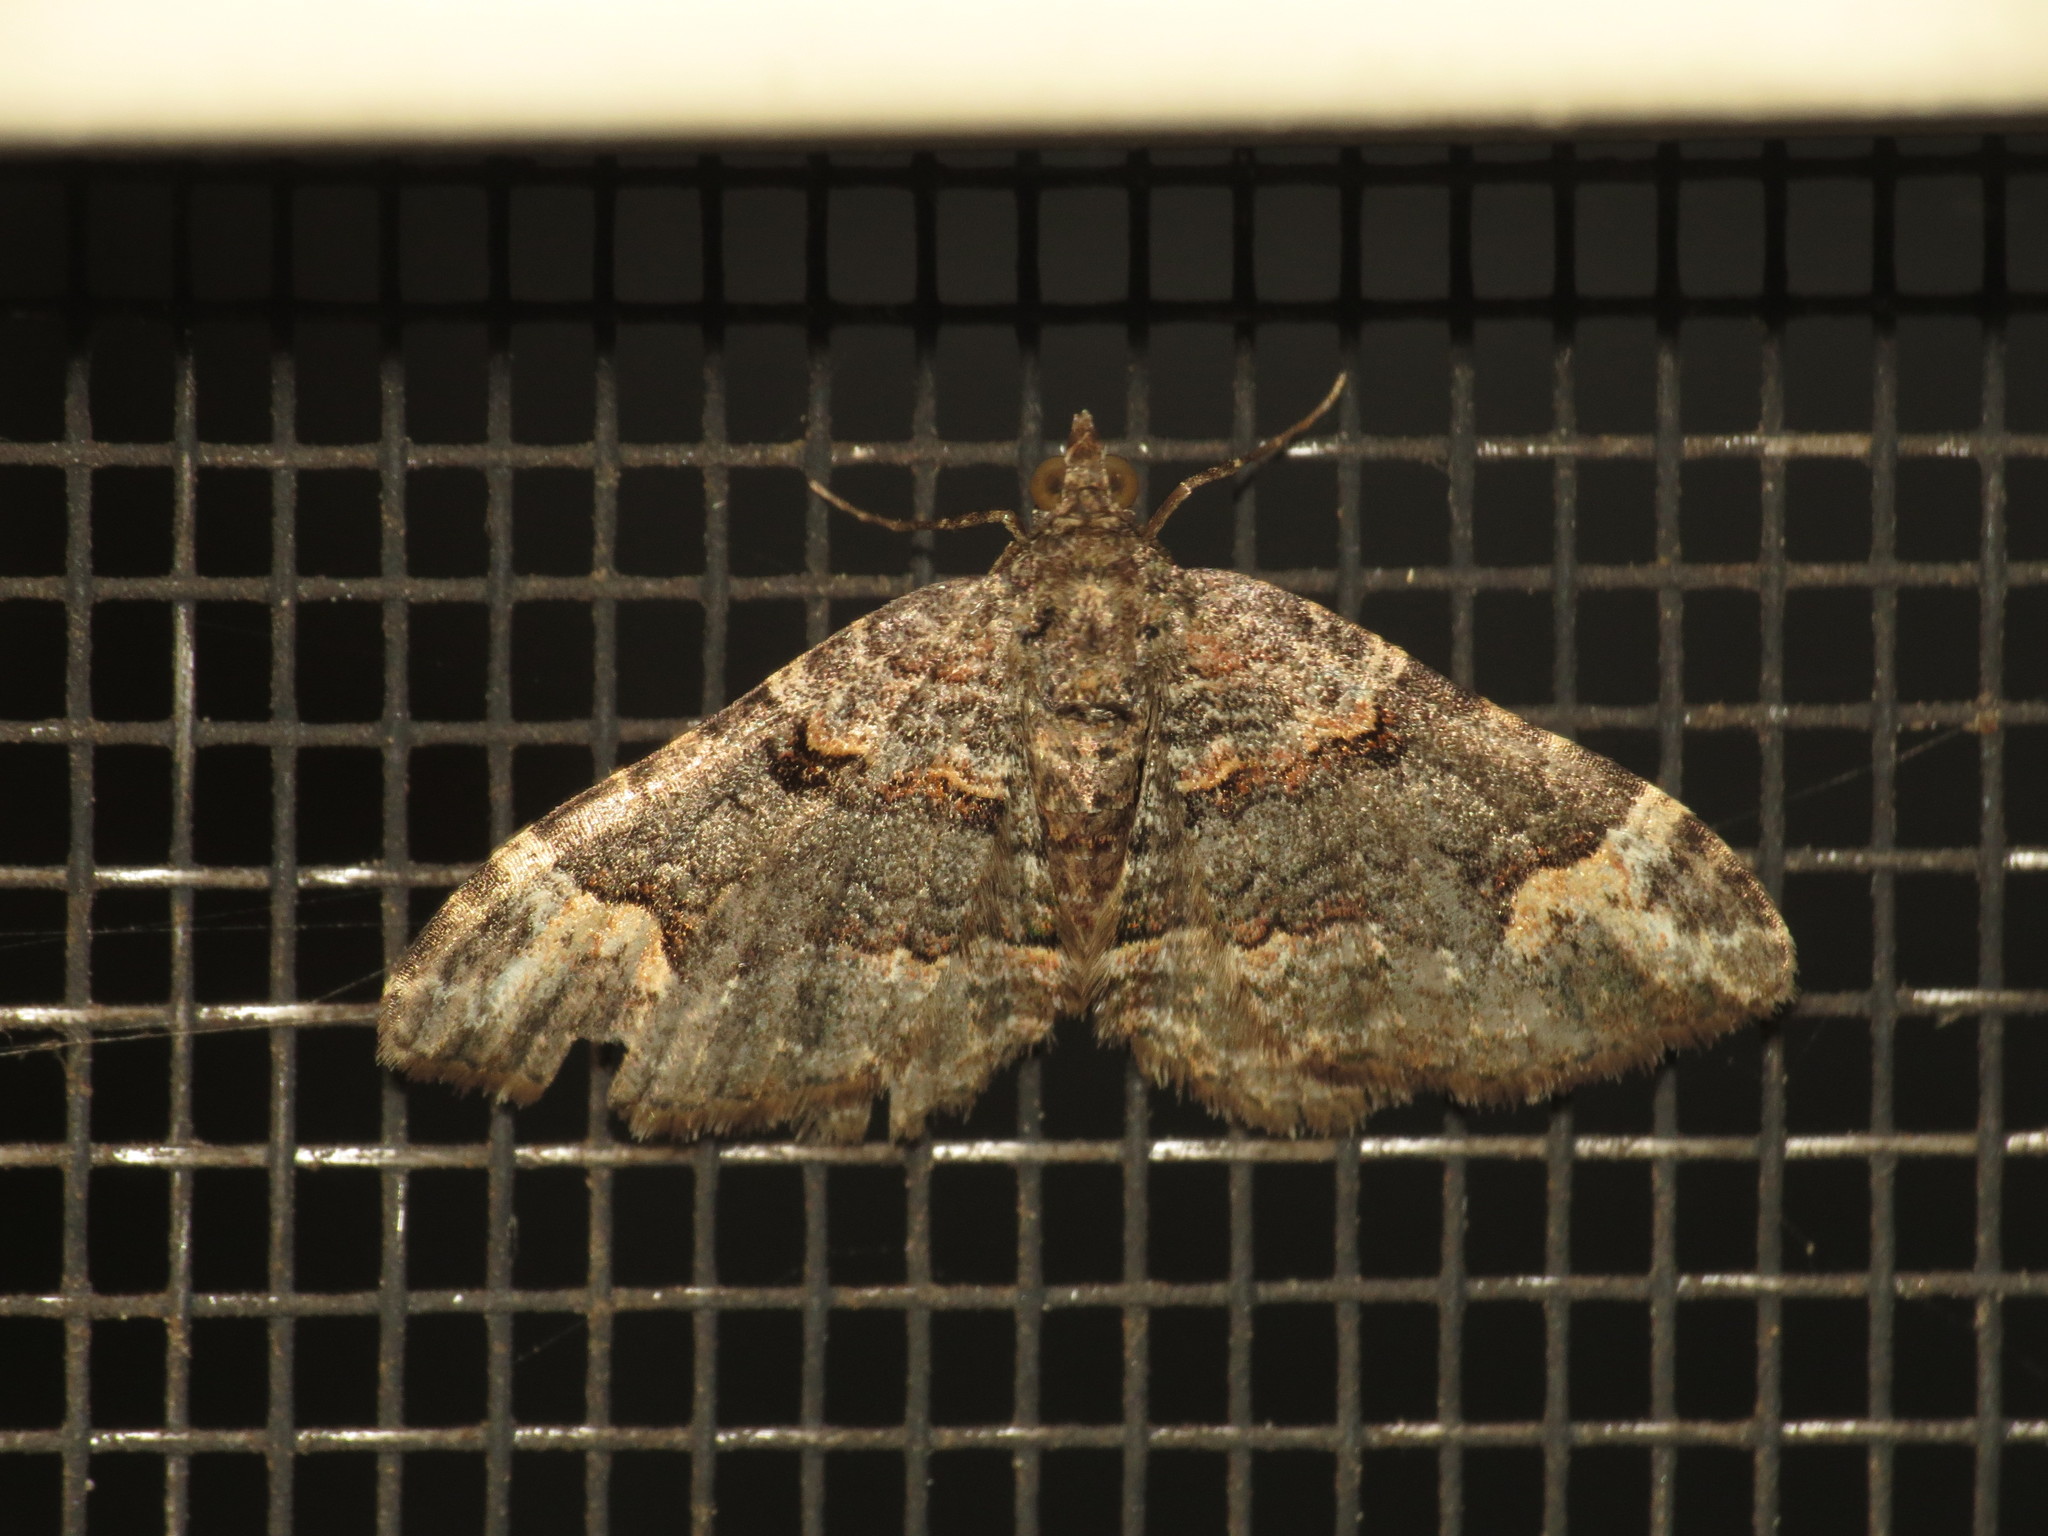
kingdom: Animalia
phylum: Arthropoda
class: Insecta
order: Lepidoptera
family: Geometridae
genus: Epyaxa
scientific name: Epyaxa subidaria
